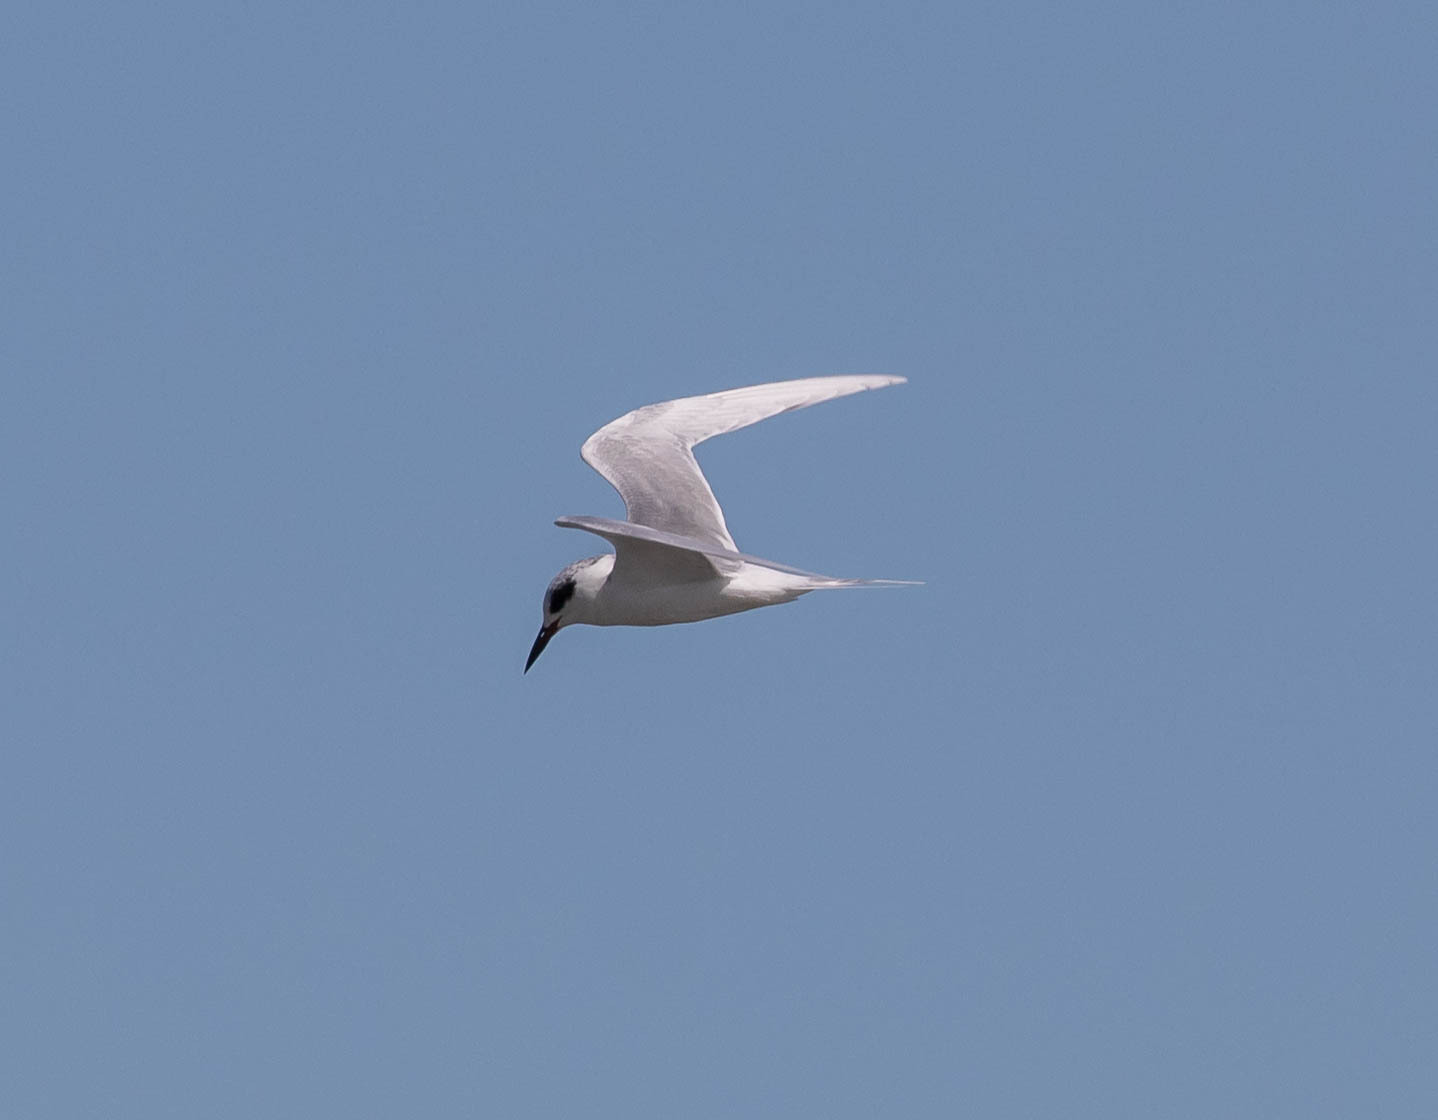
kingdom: Animalia
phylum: Chordata
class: Aves
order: Charadriiformes
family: Laridae
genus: Sterna
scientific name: Sterna forsteri
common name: Forster's tern
